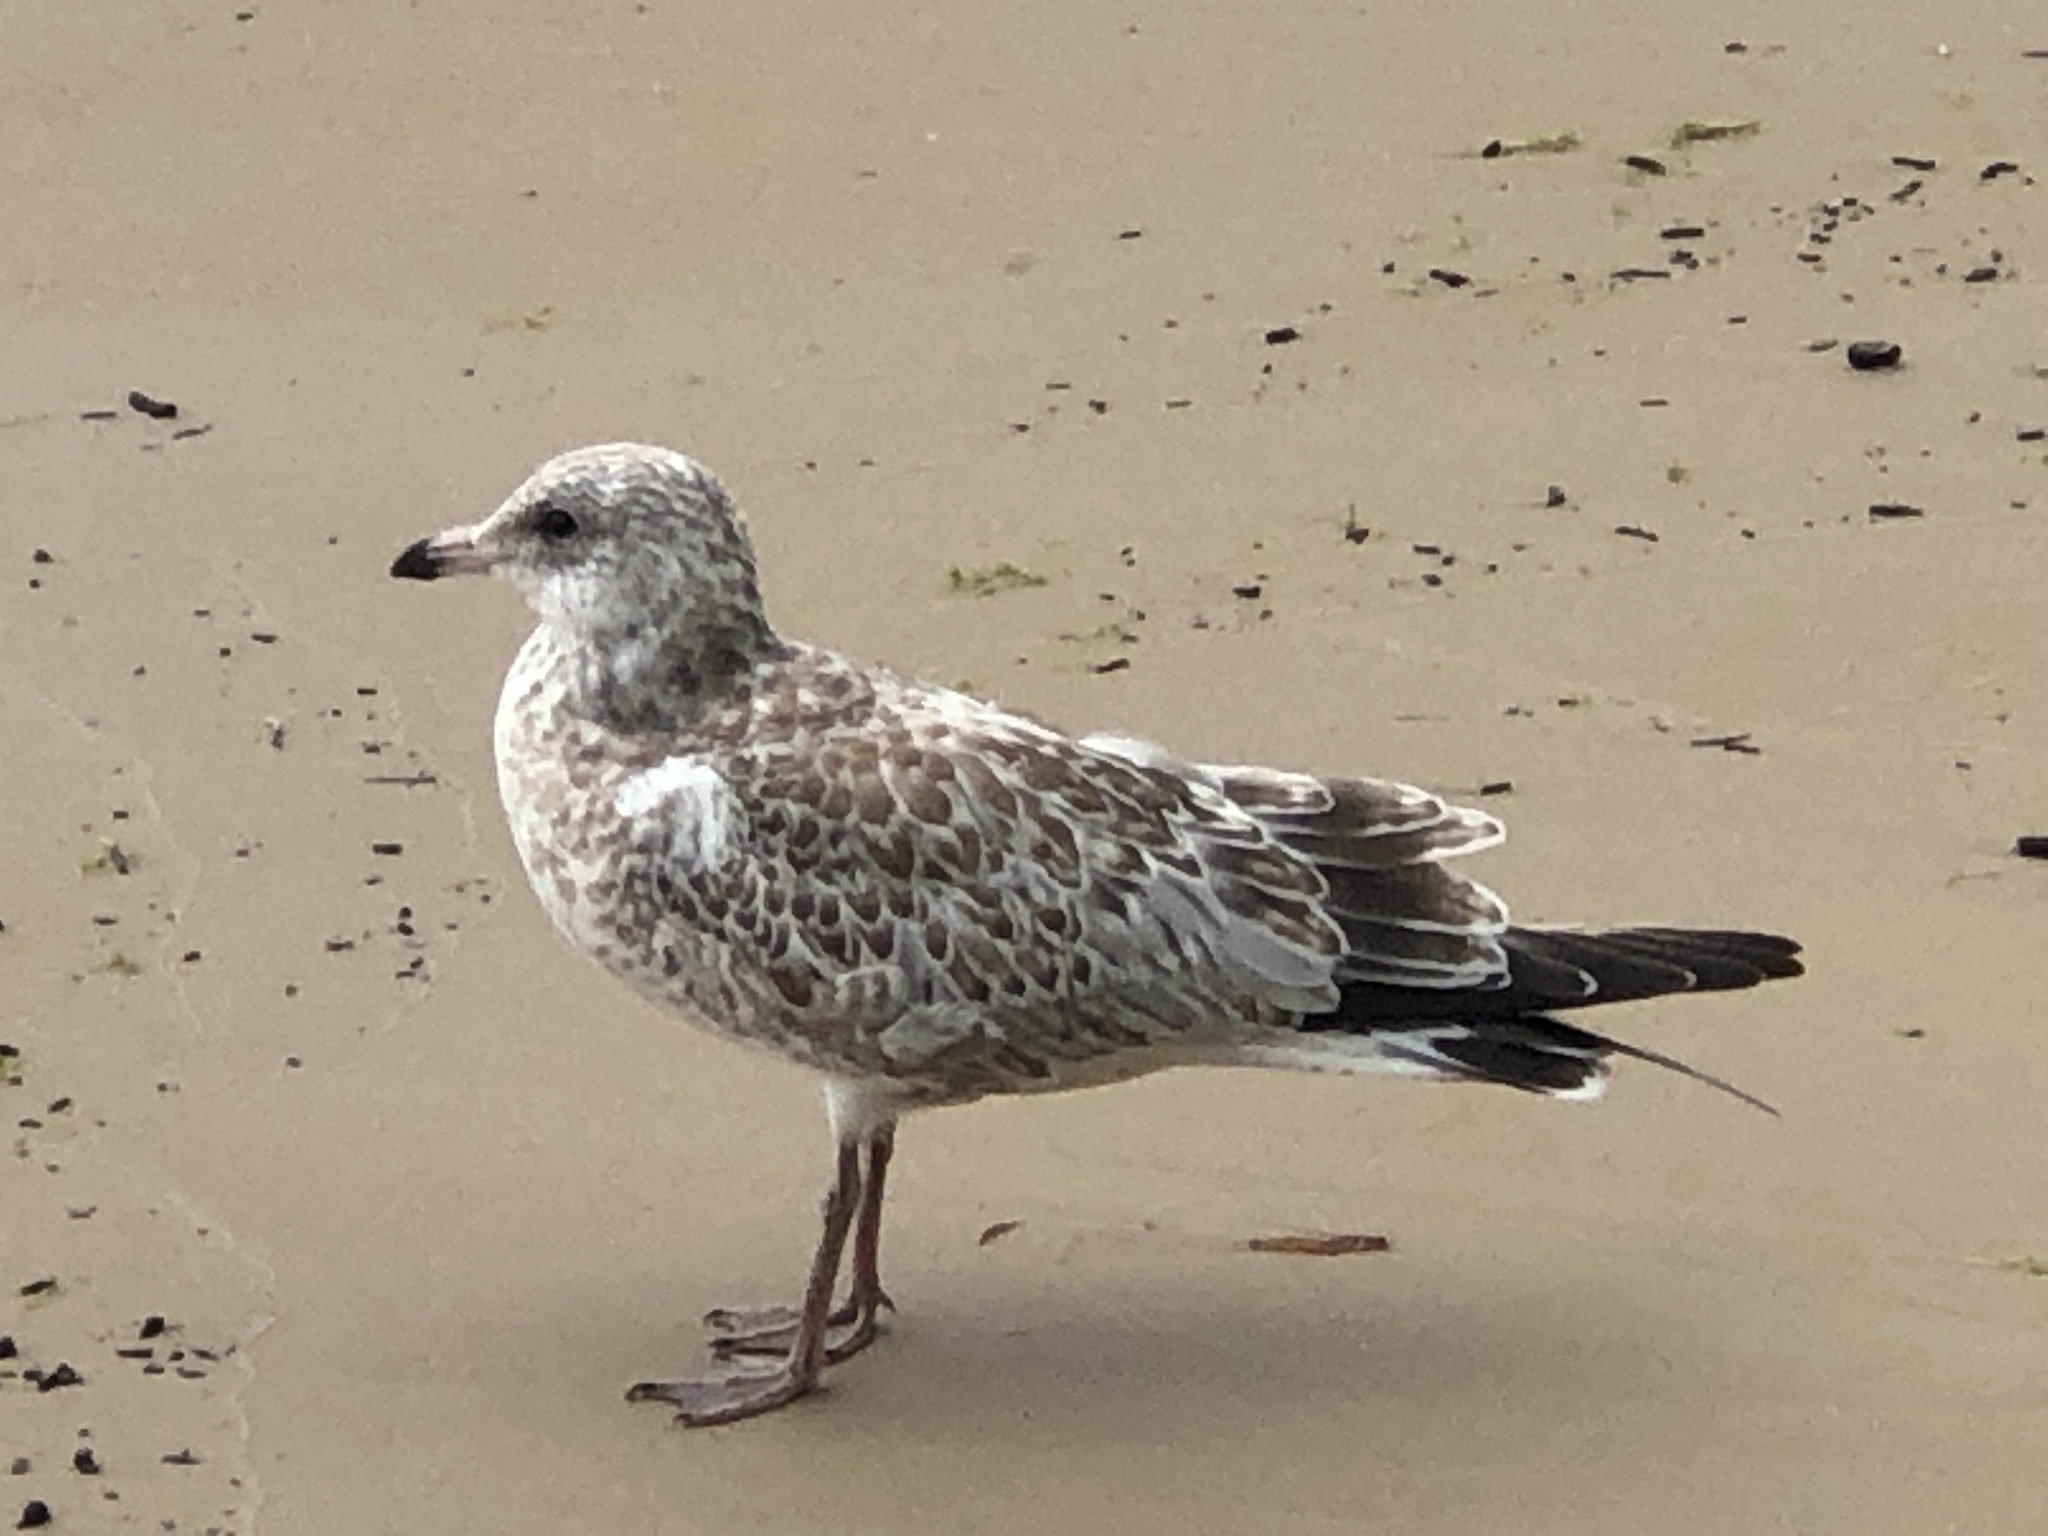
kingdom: Animalia
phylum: Chordata
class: Aves
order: Charadriiformes
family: Laridae
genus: Larus
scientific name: Larus delawarensis
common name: Ring-billed gull
